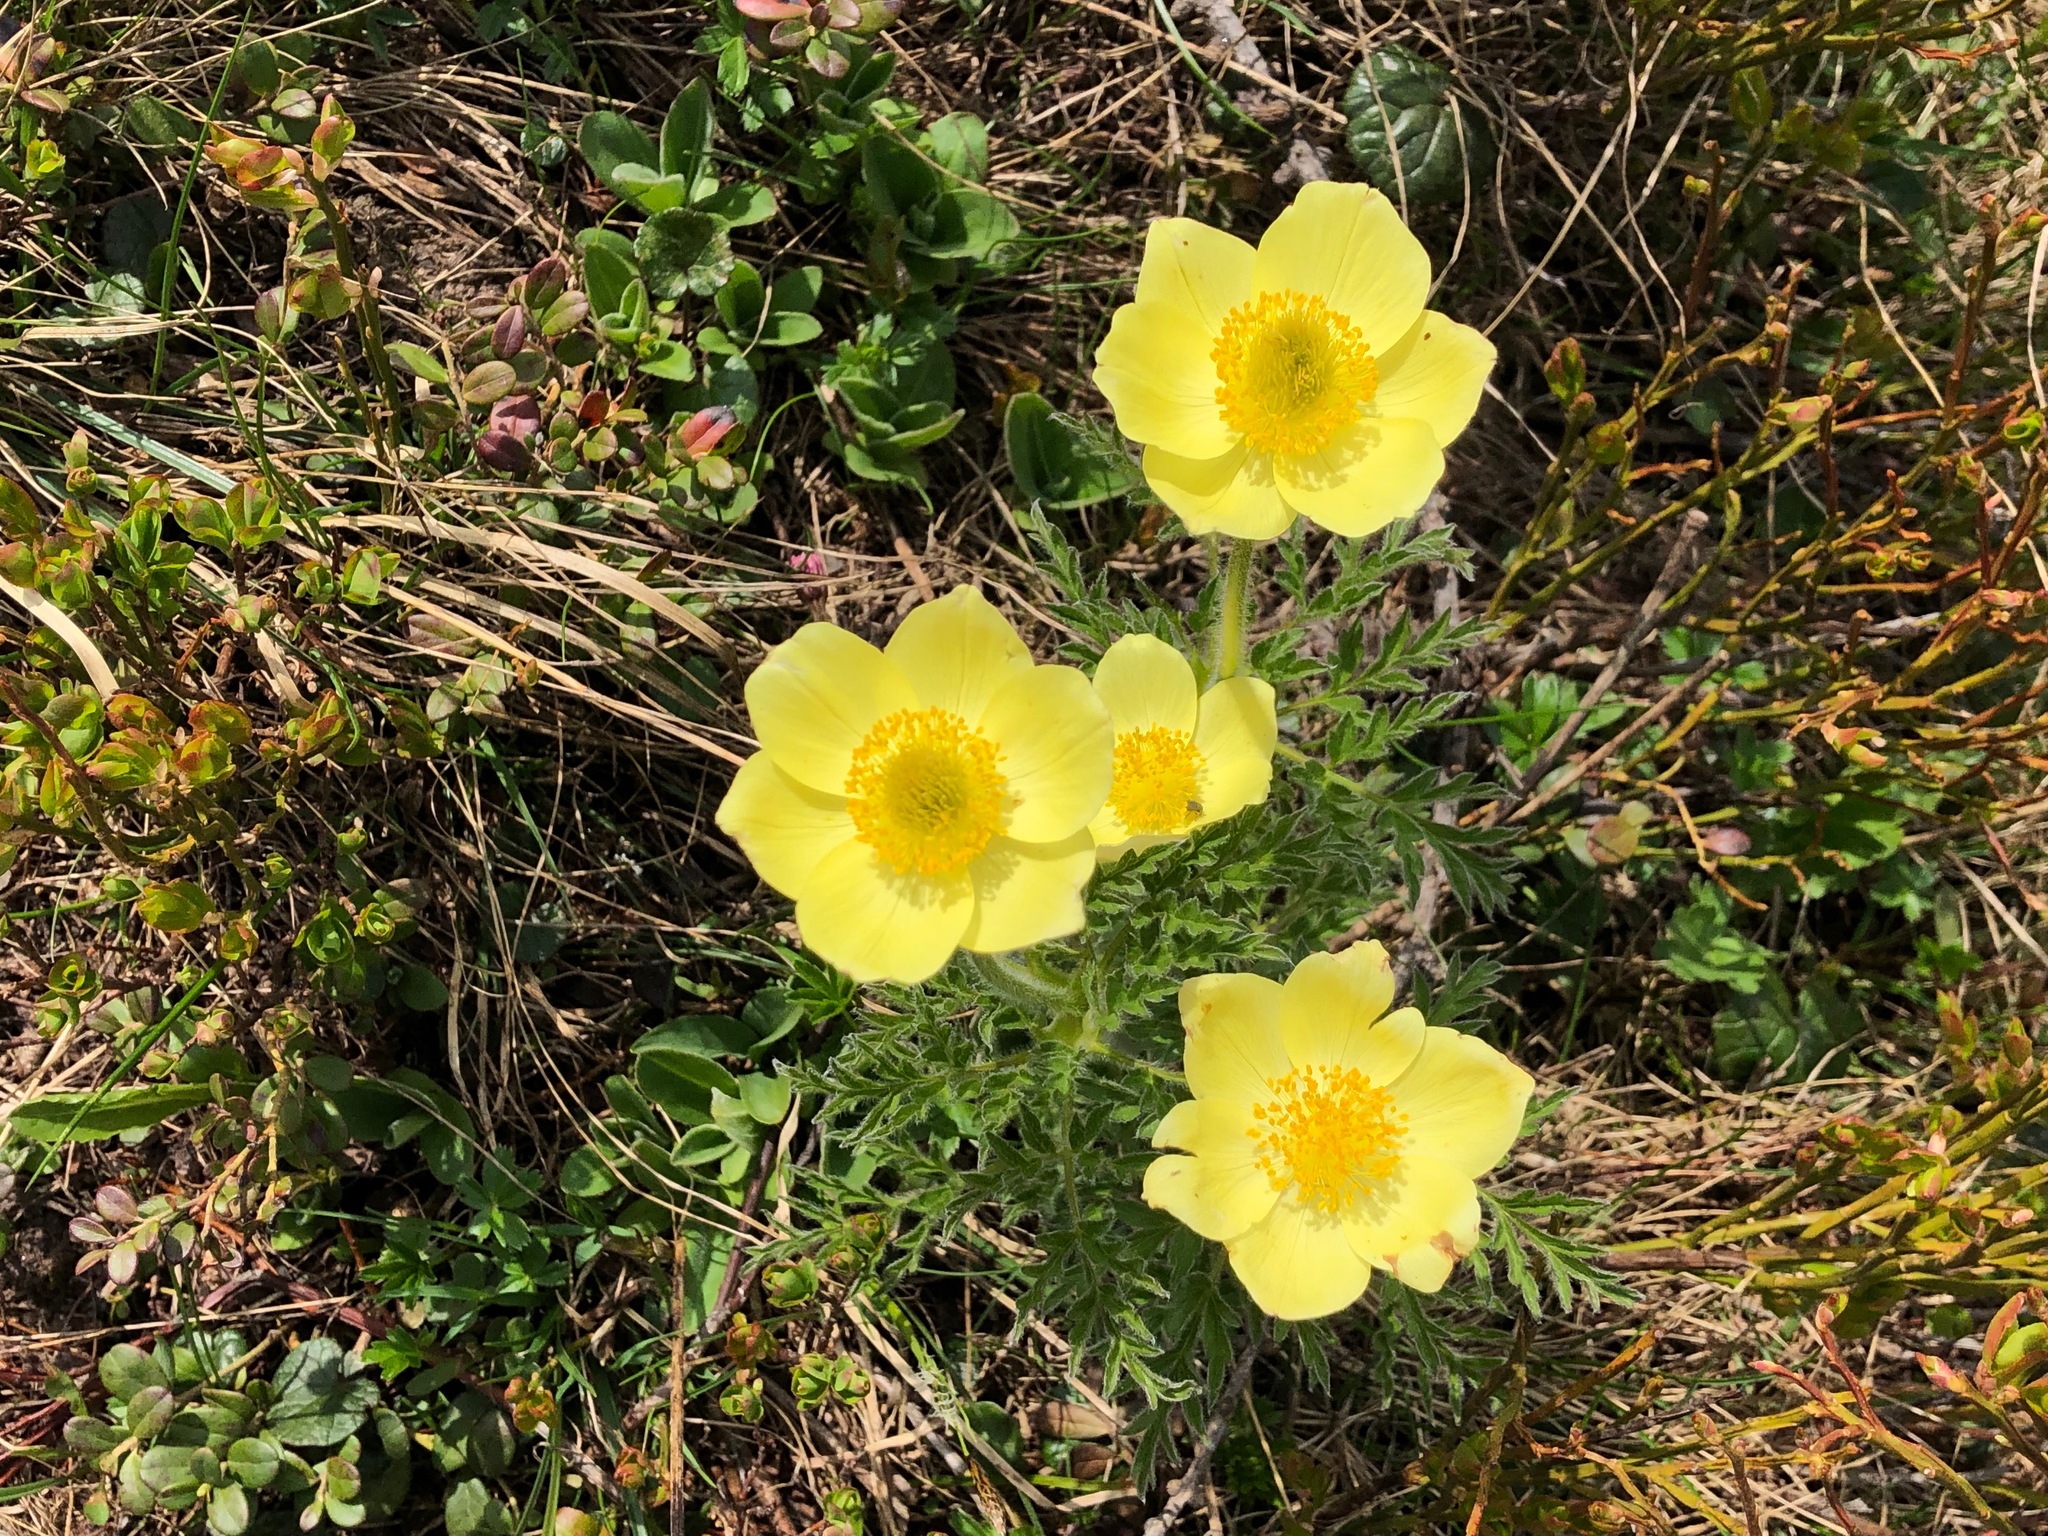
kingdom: Plantae
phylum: Tracheophyta
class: Magnoliopsida
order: Ranunculales
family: Ranunculaceae
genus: Pulsatilla
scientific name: Pulsatilla alpina
